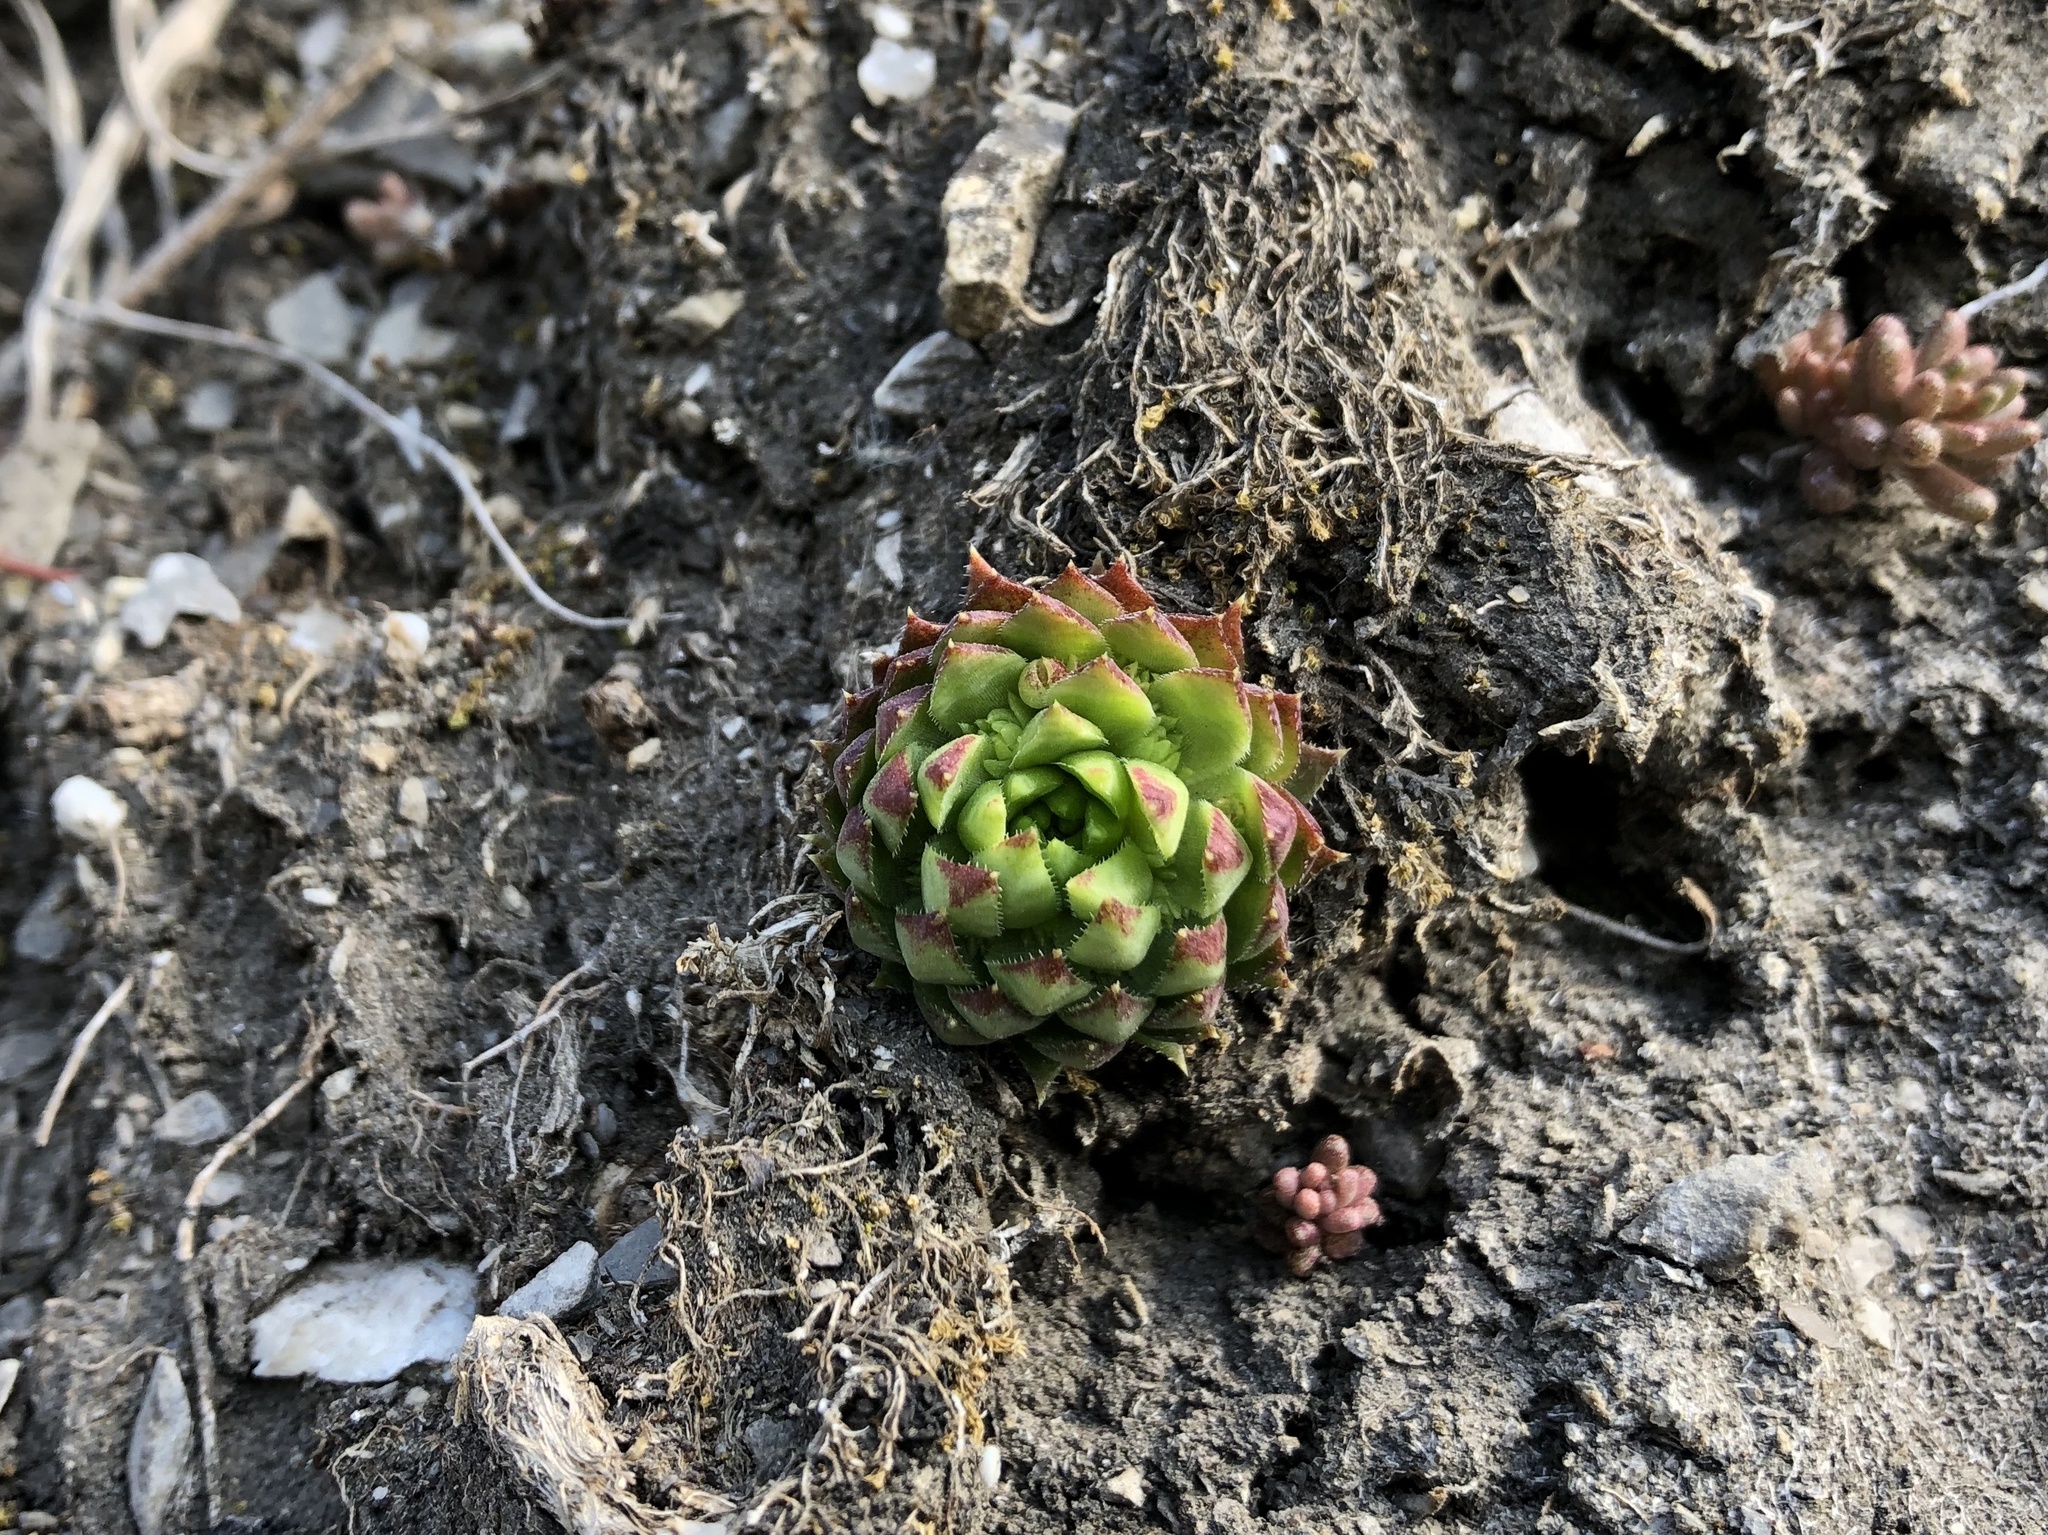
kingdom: Plantae
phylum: Tracheophyta
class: Magnoliopsida
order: Saxifragales
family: Crassulaceae
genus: Sempervivum
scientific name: Sempervivum globiferum
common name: Rolling hen-and-chicks
